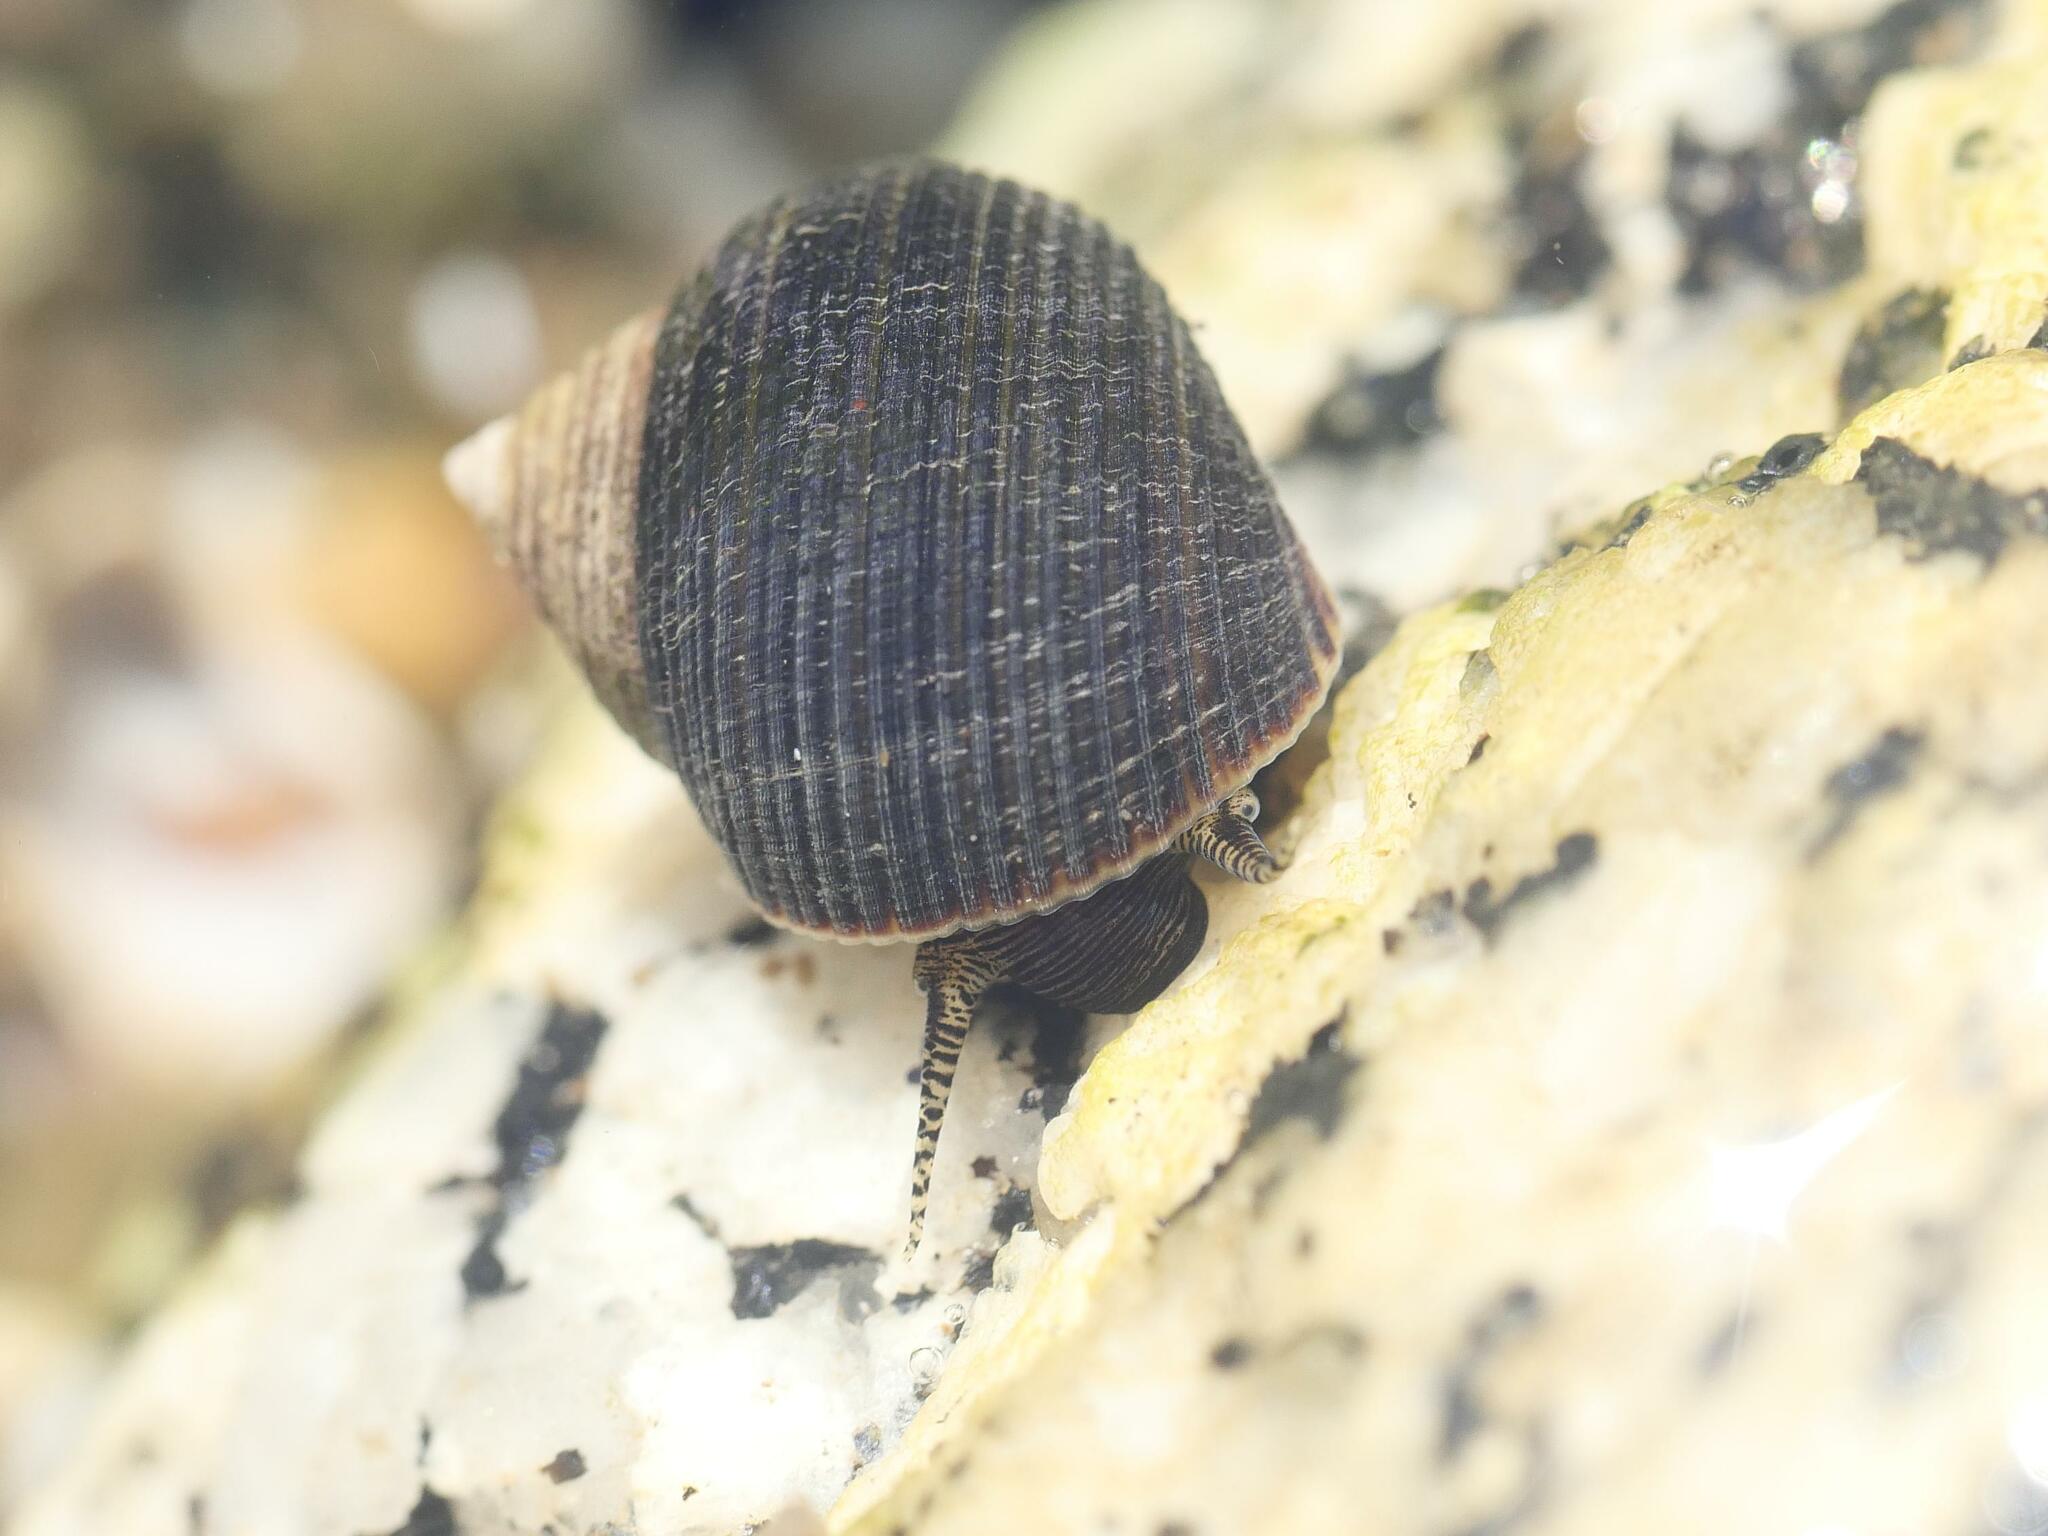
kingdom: Animalia
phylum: Mollusca
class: Gastropoda
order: Littorinimorpha
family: Littorinidae
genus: Littorina
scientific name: Littorina littorea
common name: Common periwinkle
